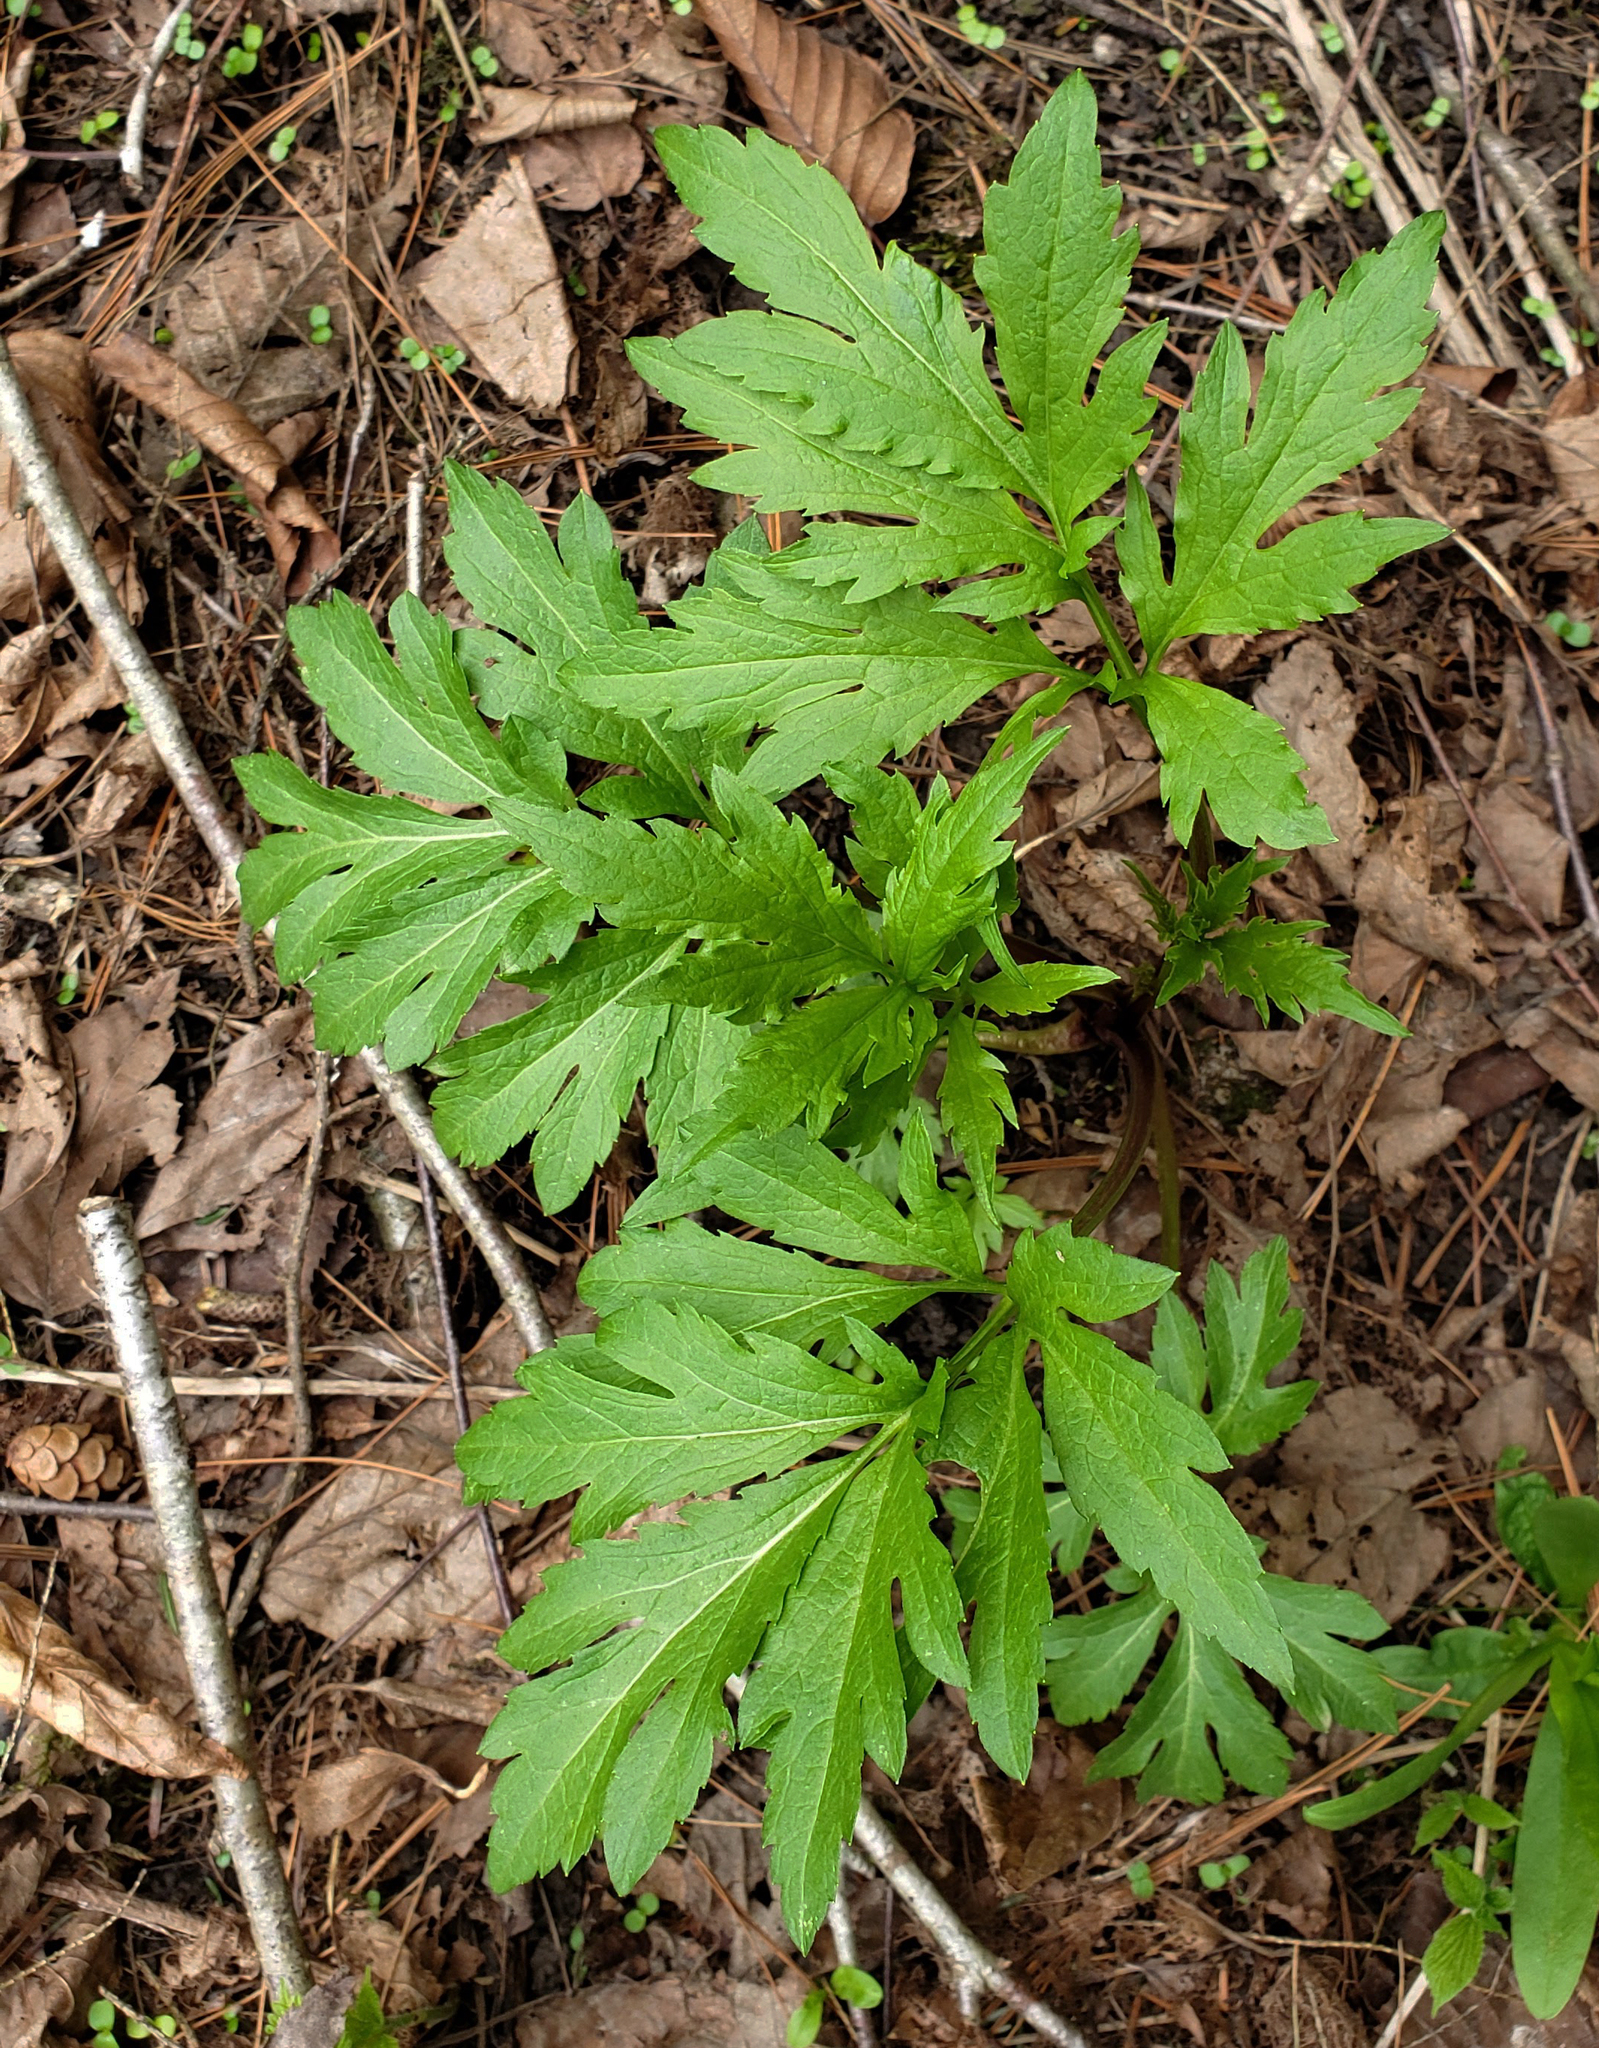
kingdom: Plantae
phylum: Tracheophyta
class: Magnoliopsida
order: Asterales
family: Asteraceae
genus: Rudbeckia
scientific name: Rudbeckia laciniata
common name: Coneflower
